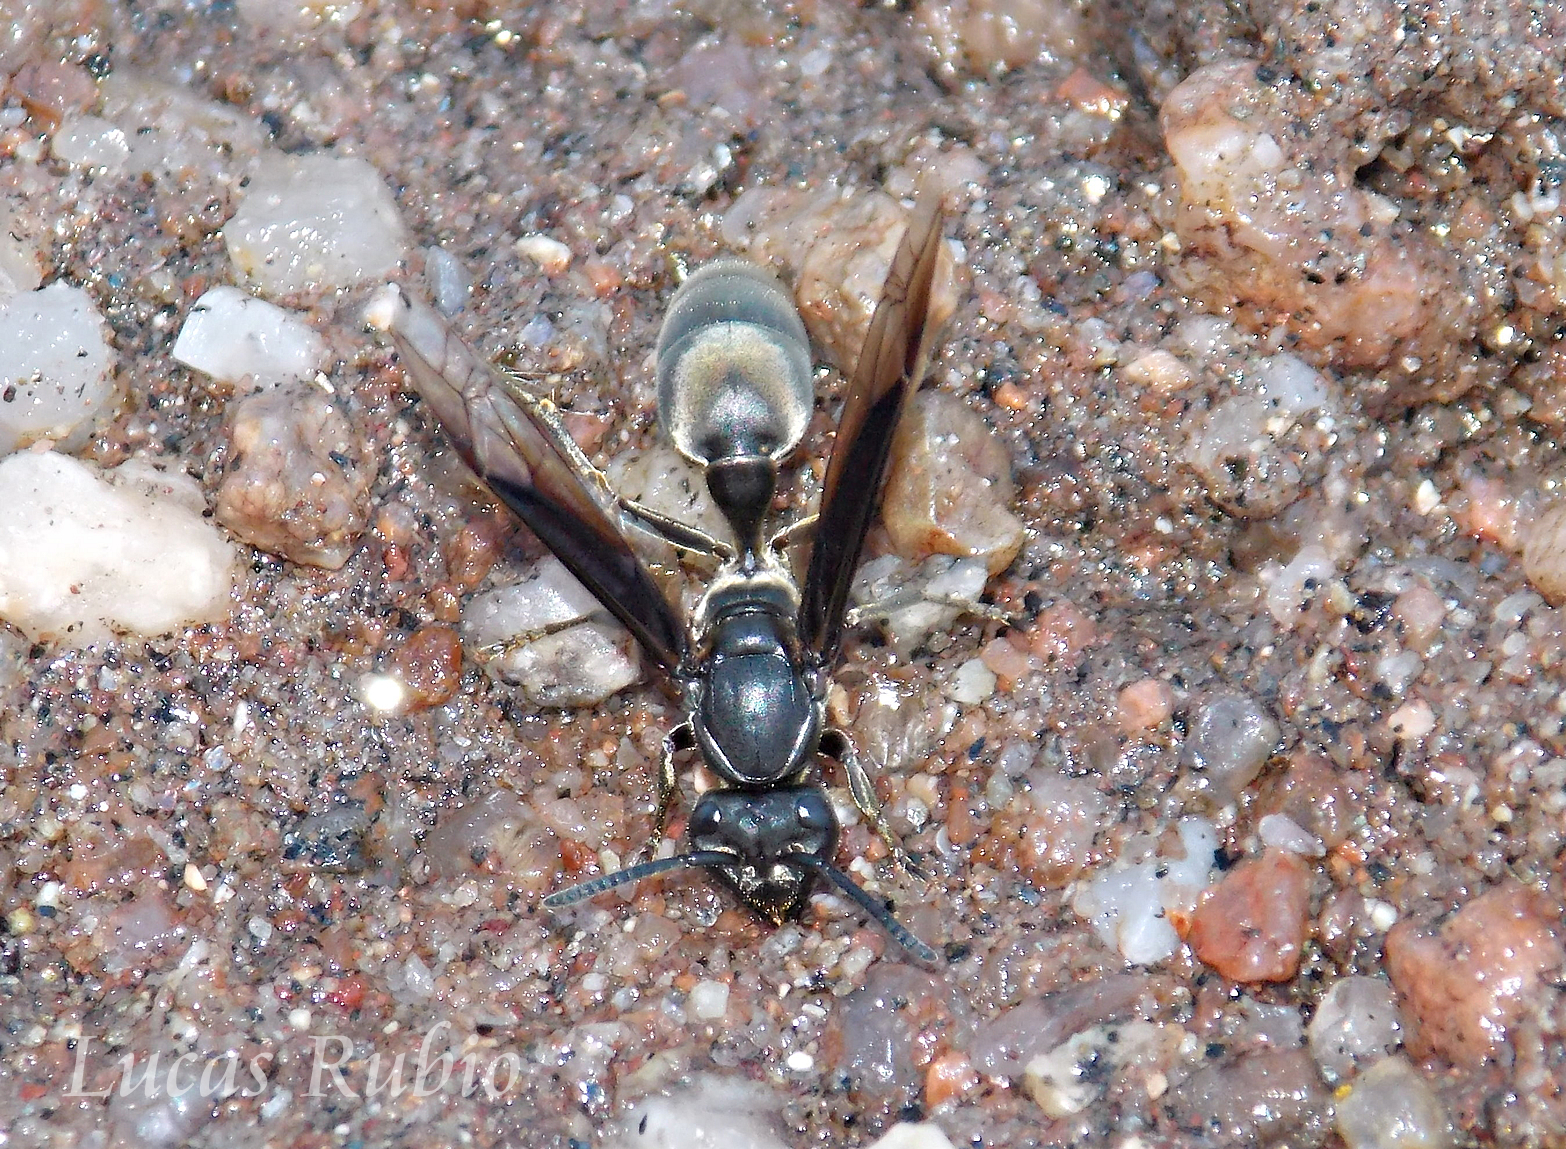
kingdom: Animalia
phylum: Arthropoda
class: Insecta
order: Hymenoptera
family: Eumenidae
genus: Polybia
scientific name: Polybia ignobilis
